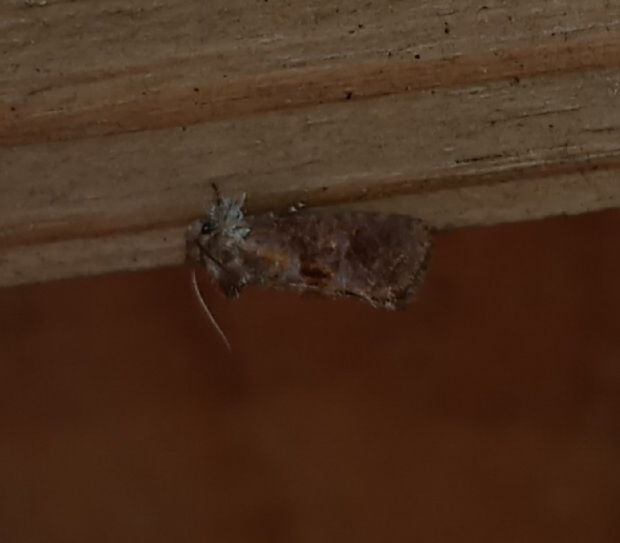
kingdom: Animalia
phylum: Arthropoda
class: Insecta
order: Lepidoptera
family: Tineidae
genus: Acrolophus
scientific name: Acrolophus panamae
